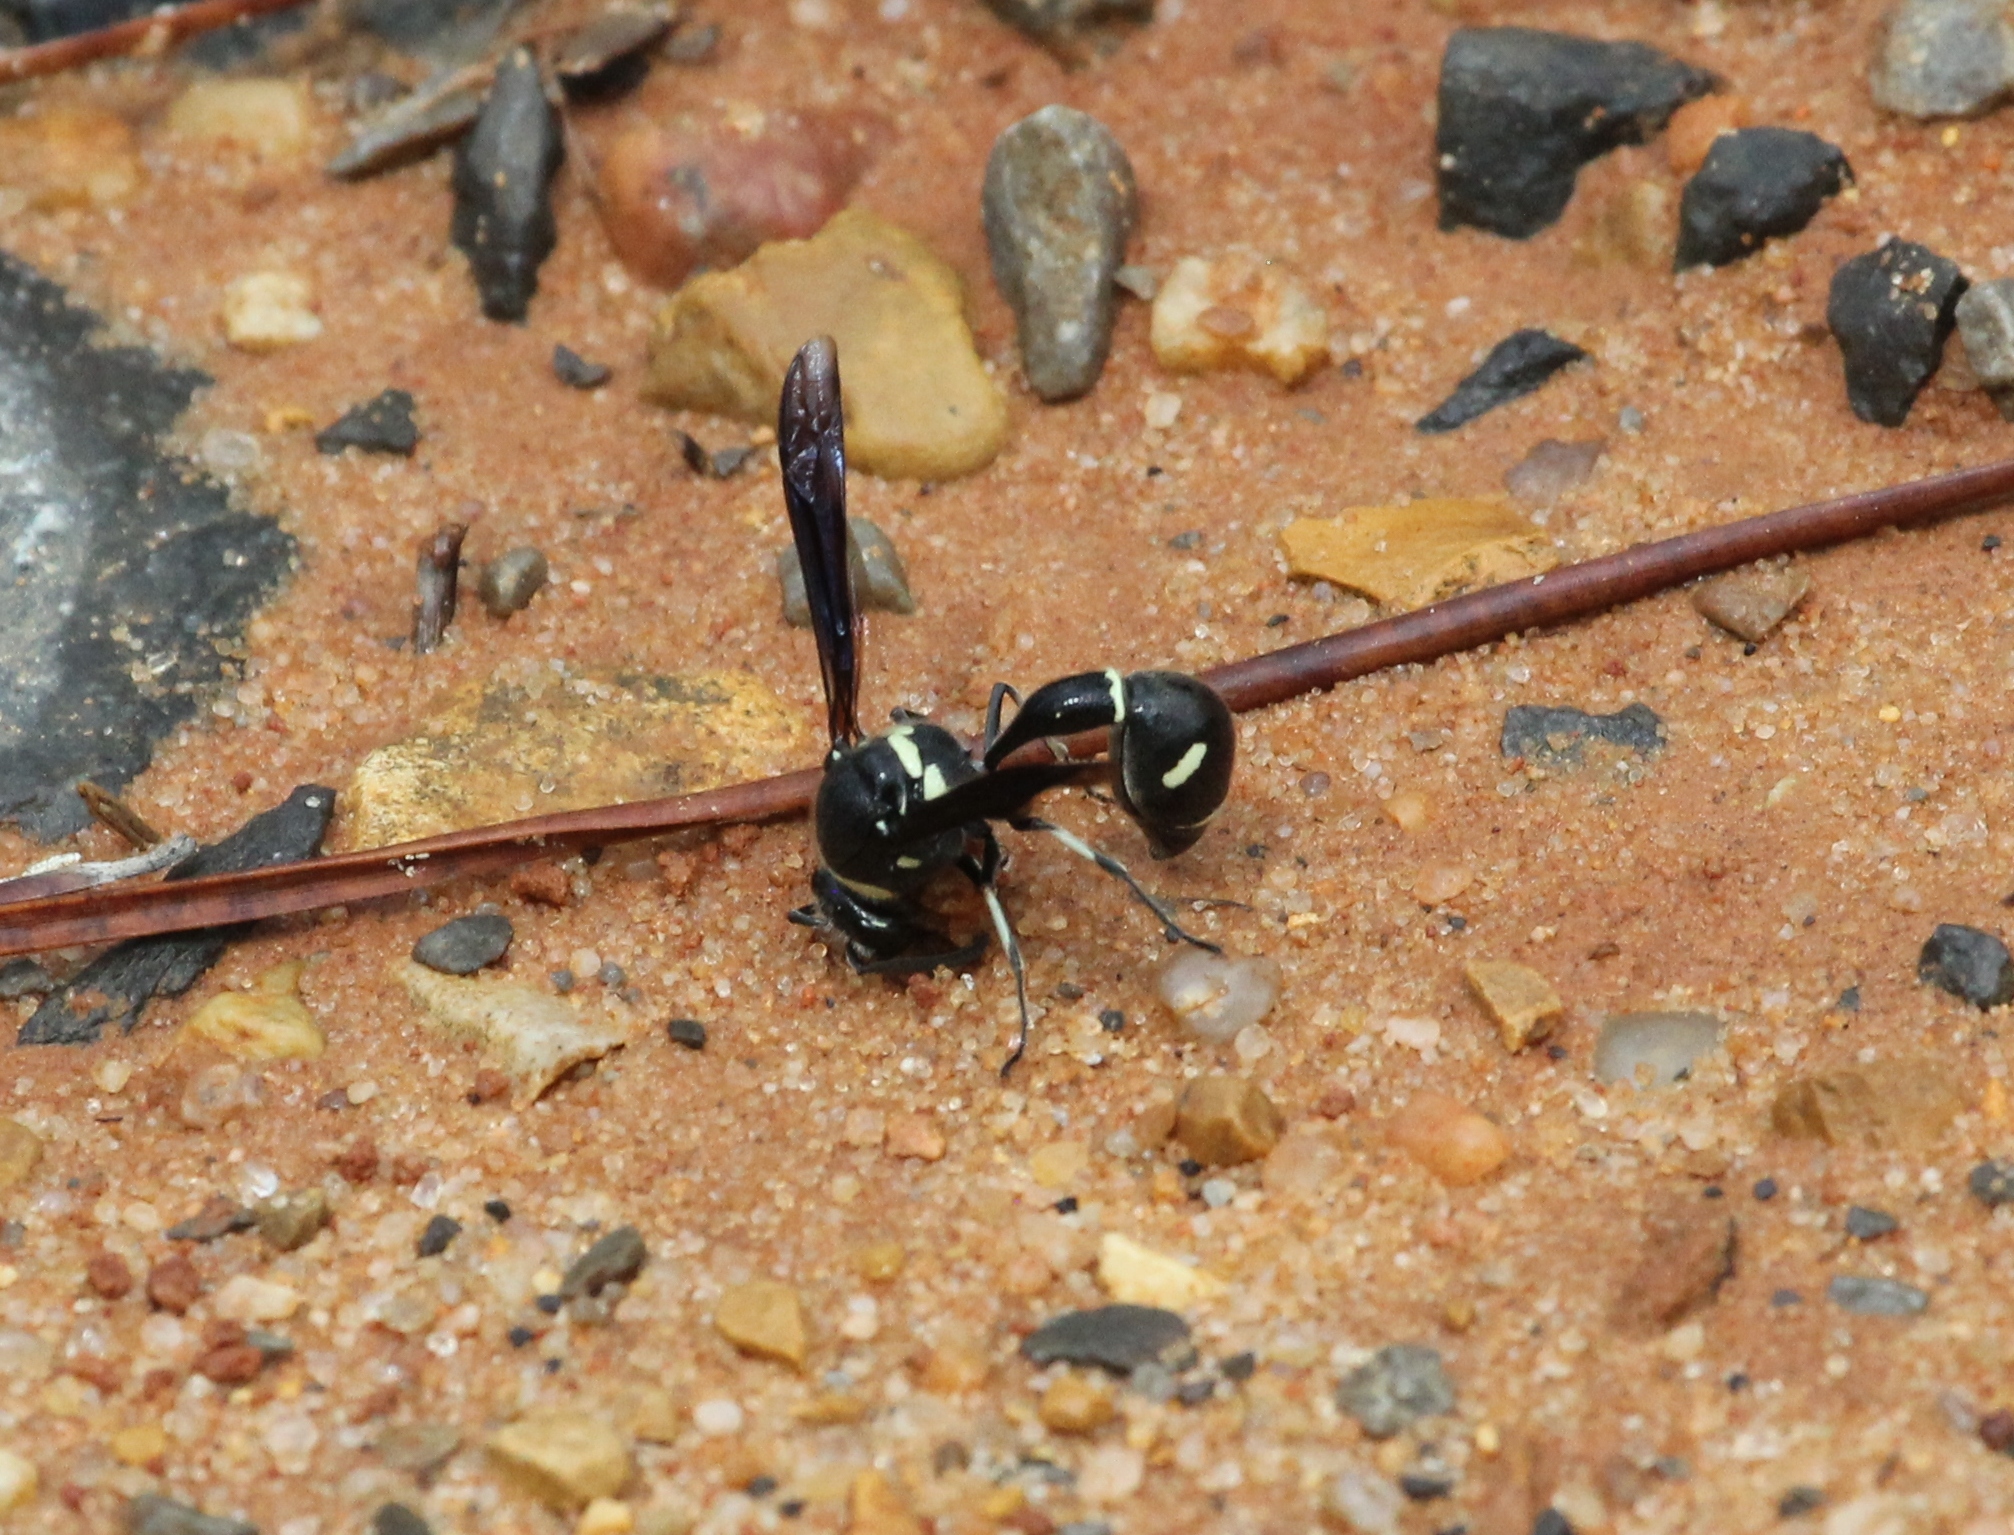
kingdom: Animalia
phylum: Arthropoda
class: Insecta
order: Hymenoptera
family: Vespidae
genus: Eumenes
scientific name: Eumenes fraternus
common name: Fraternal potter wasp
